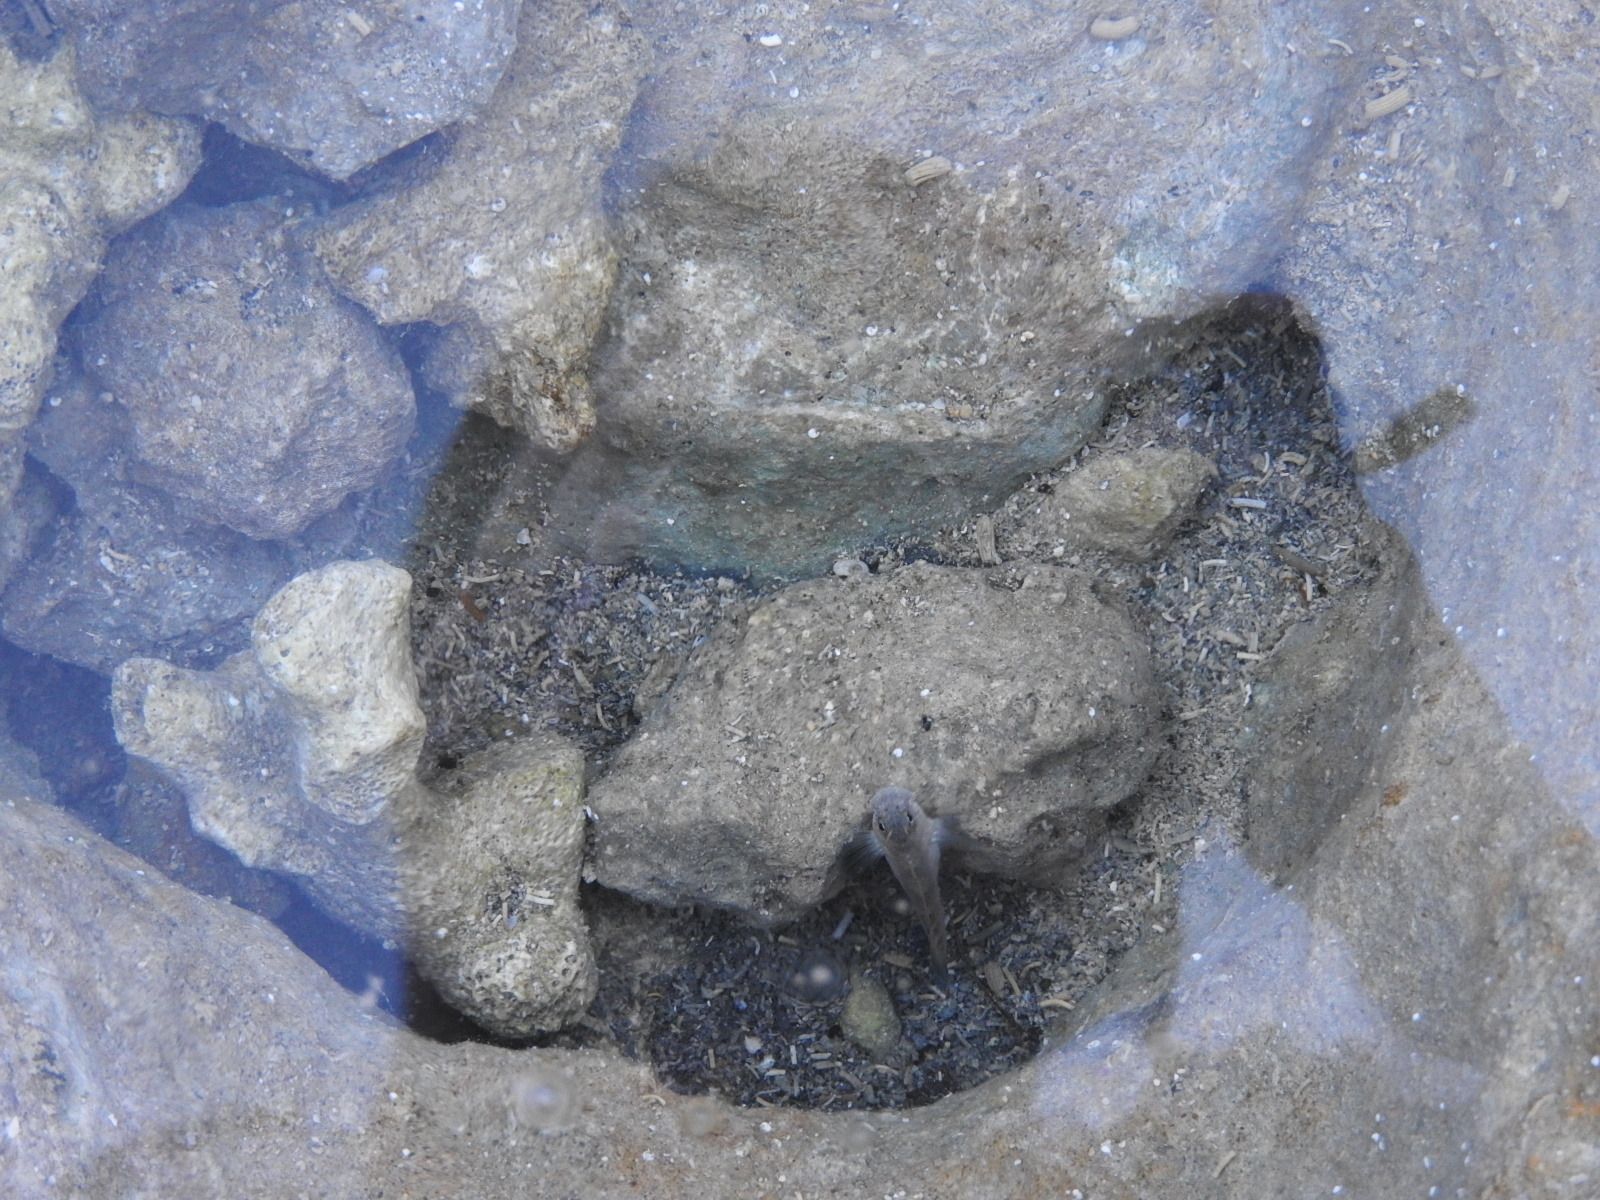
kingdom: Animalia
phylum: Chordata
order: Perciformes
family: Blenniidae
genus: Istiblennius
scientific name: Istiblennius zebra
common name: Zebra blenny
